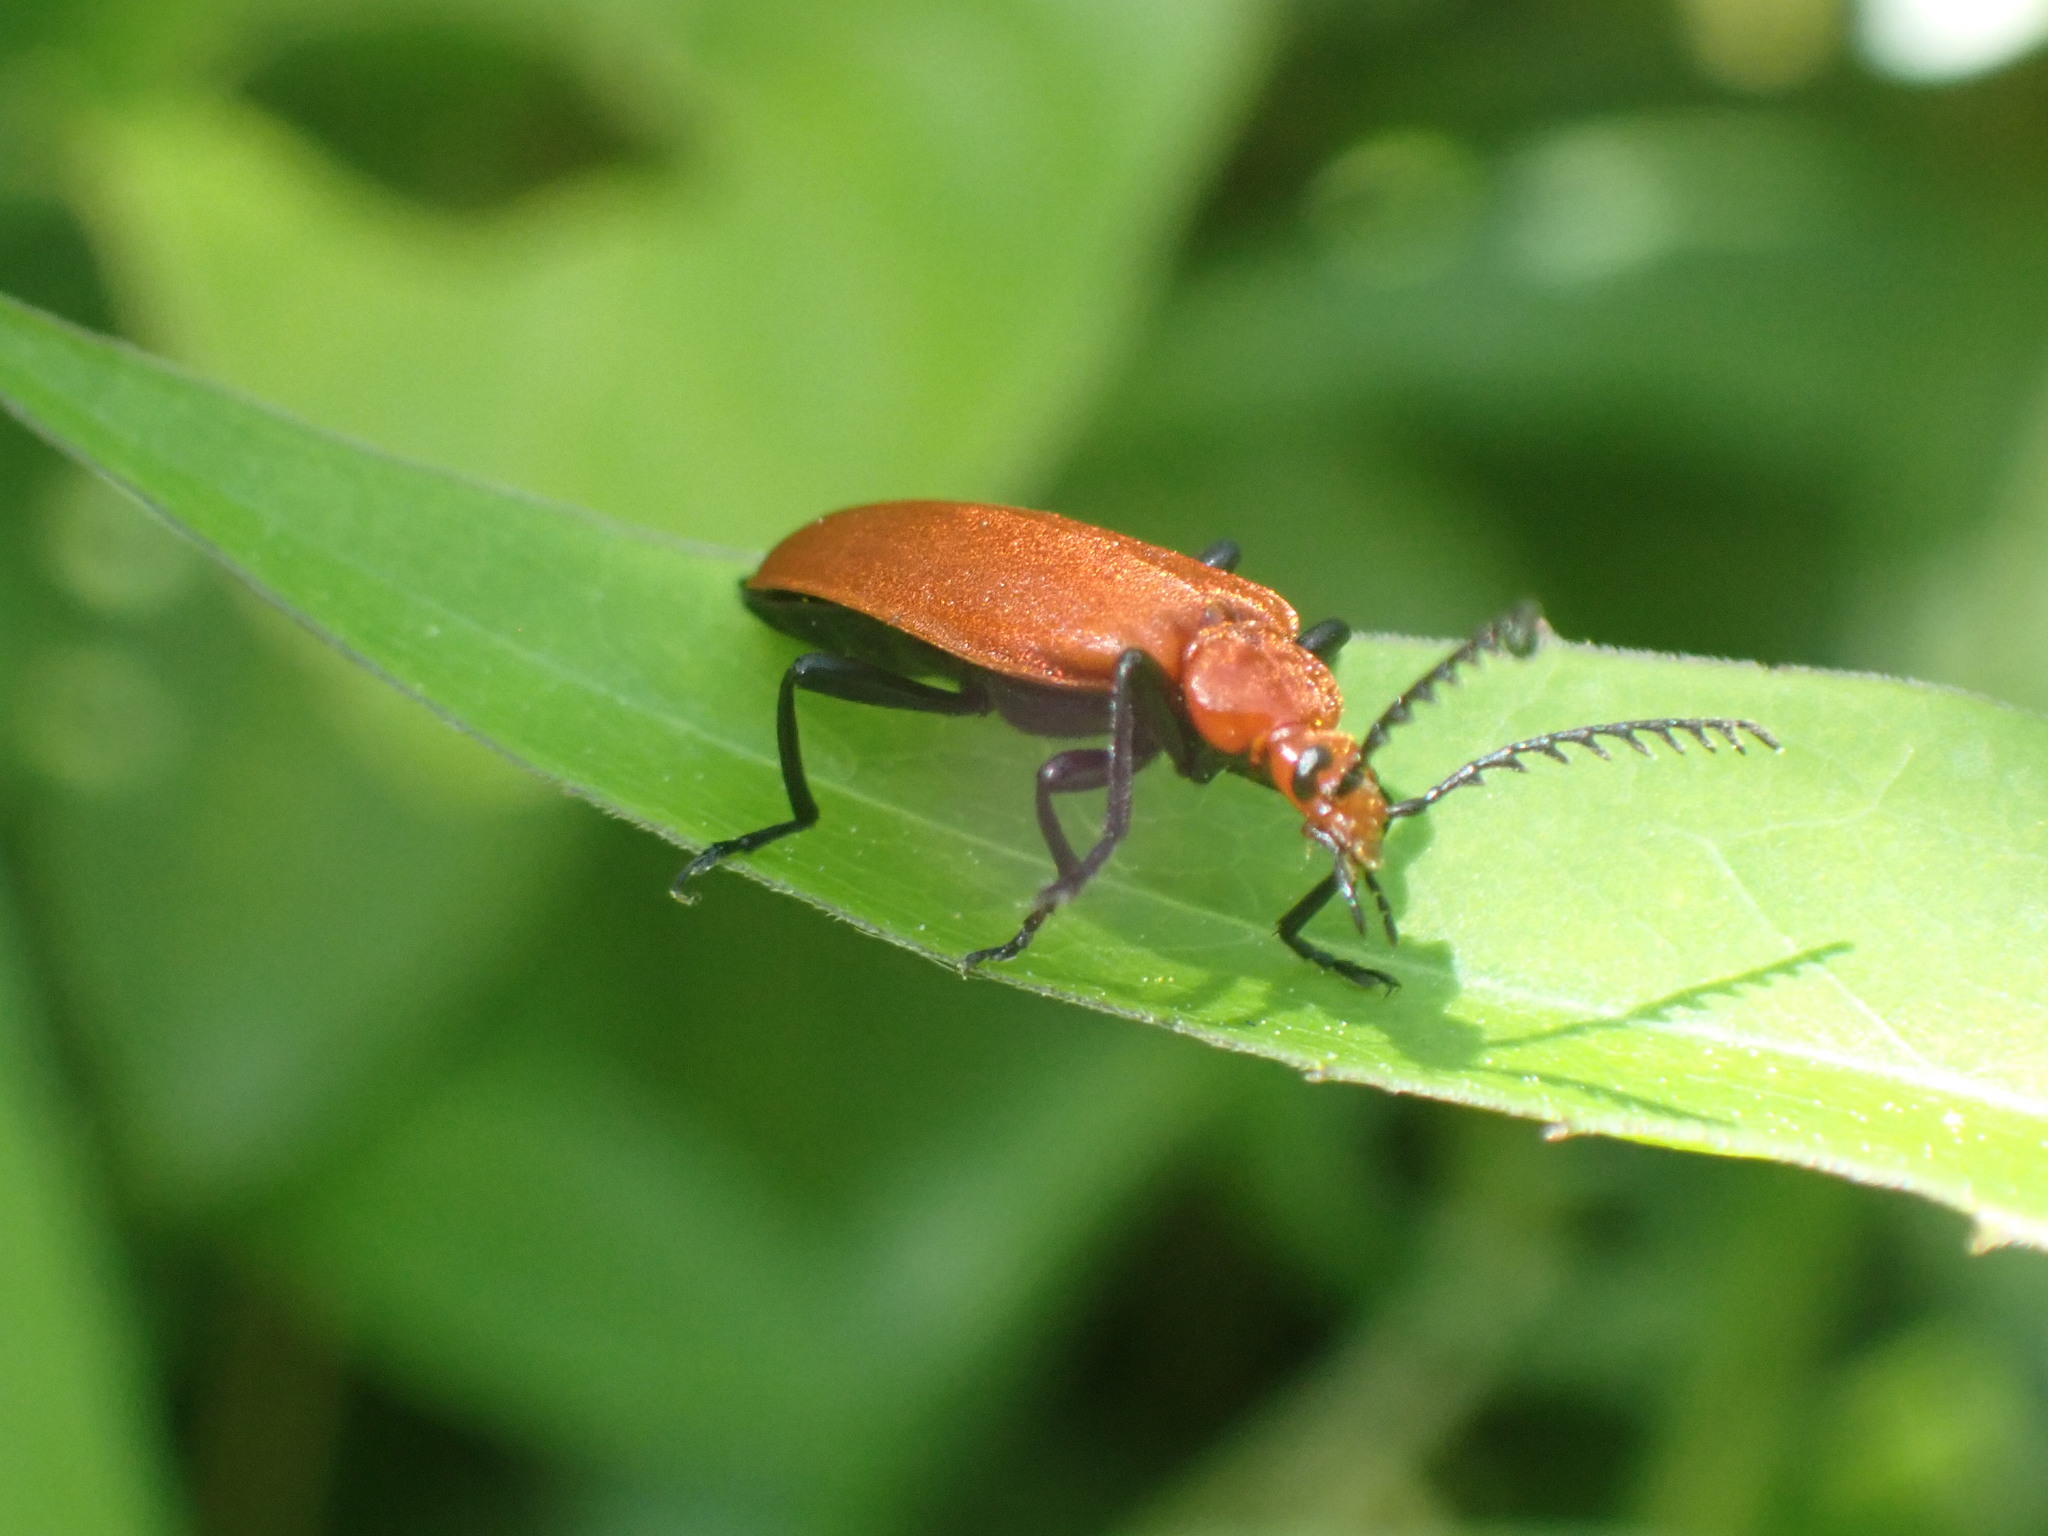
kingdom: Animalia
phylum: Arthropoda
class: Insecta
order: Coleoptera
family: Pyrochroidae
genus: Pyrochroa
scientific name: Pyrochroa serraticornis
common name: Red-headed cardinal beetle
